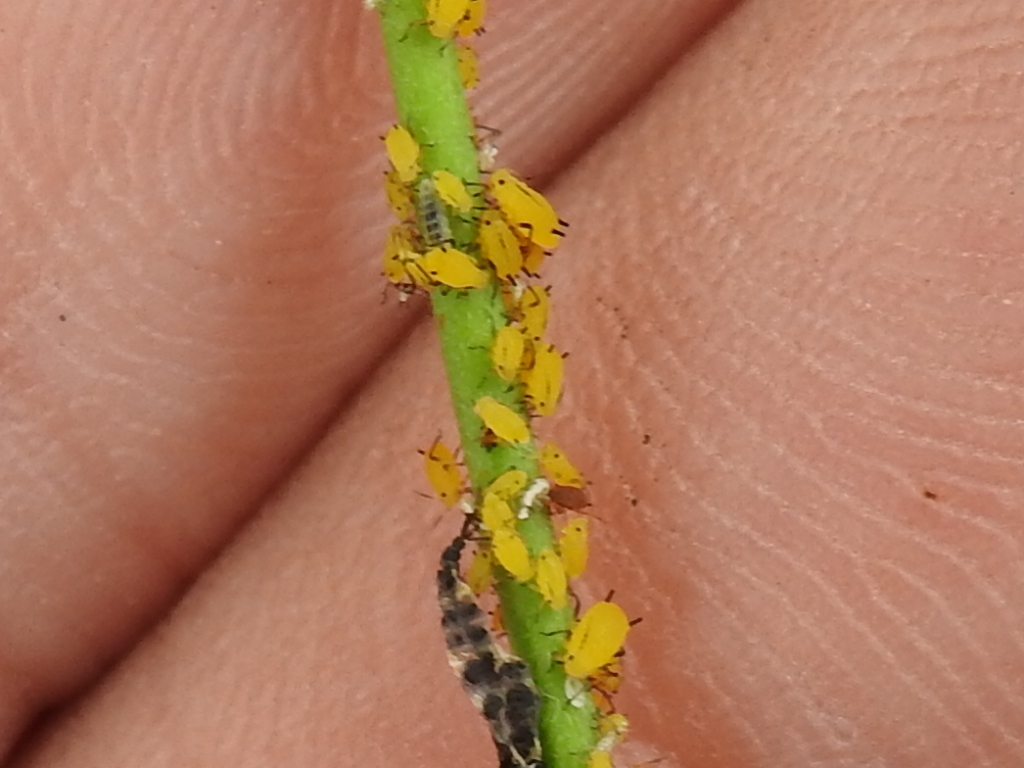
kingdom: Animalia
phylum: Arthropoda
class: Insecta
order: Hemiptera
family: Aphididae
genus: Aphis
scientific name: Aphis nerii
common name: Oleander aphid
